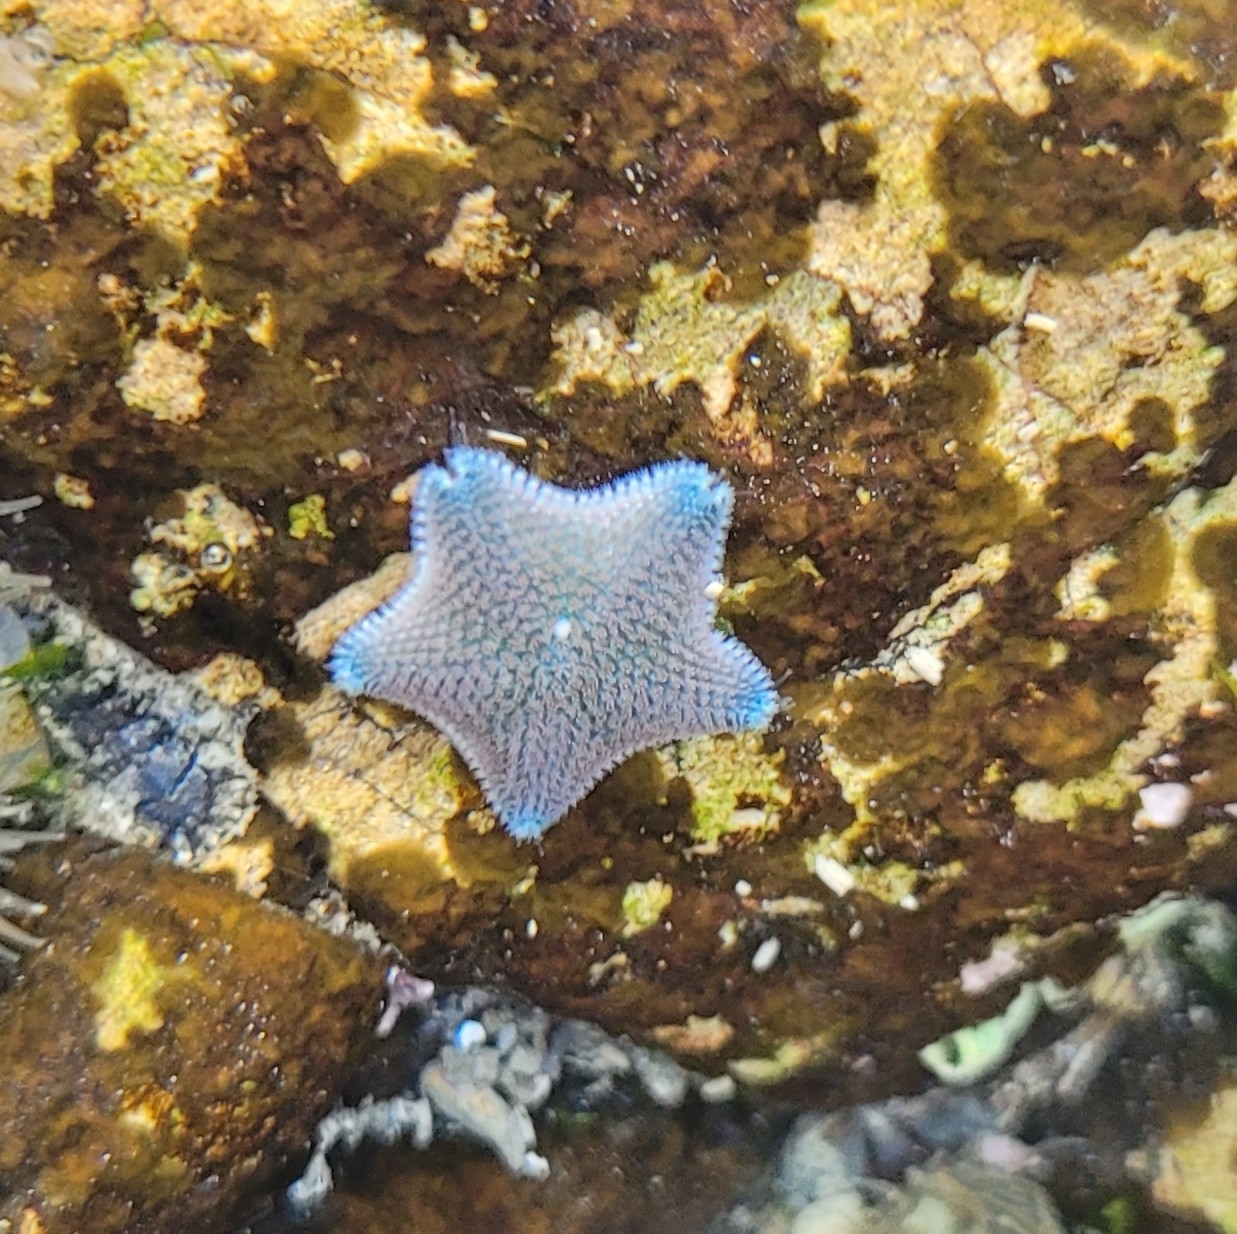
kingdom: Animalia
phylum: Echinodermata
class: Asteroidea
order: Valvatida
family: Asterinidae
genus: Patiriella
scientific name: Patiriella regularis
